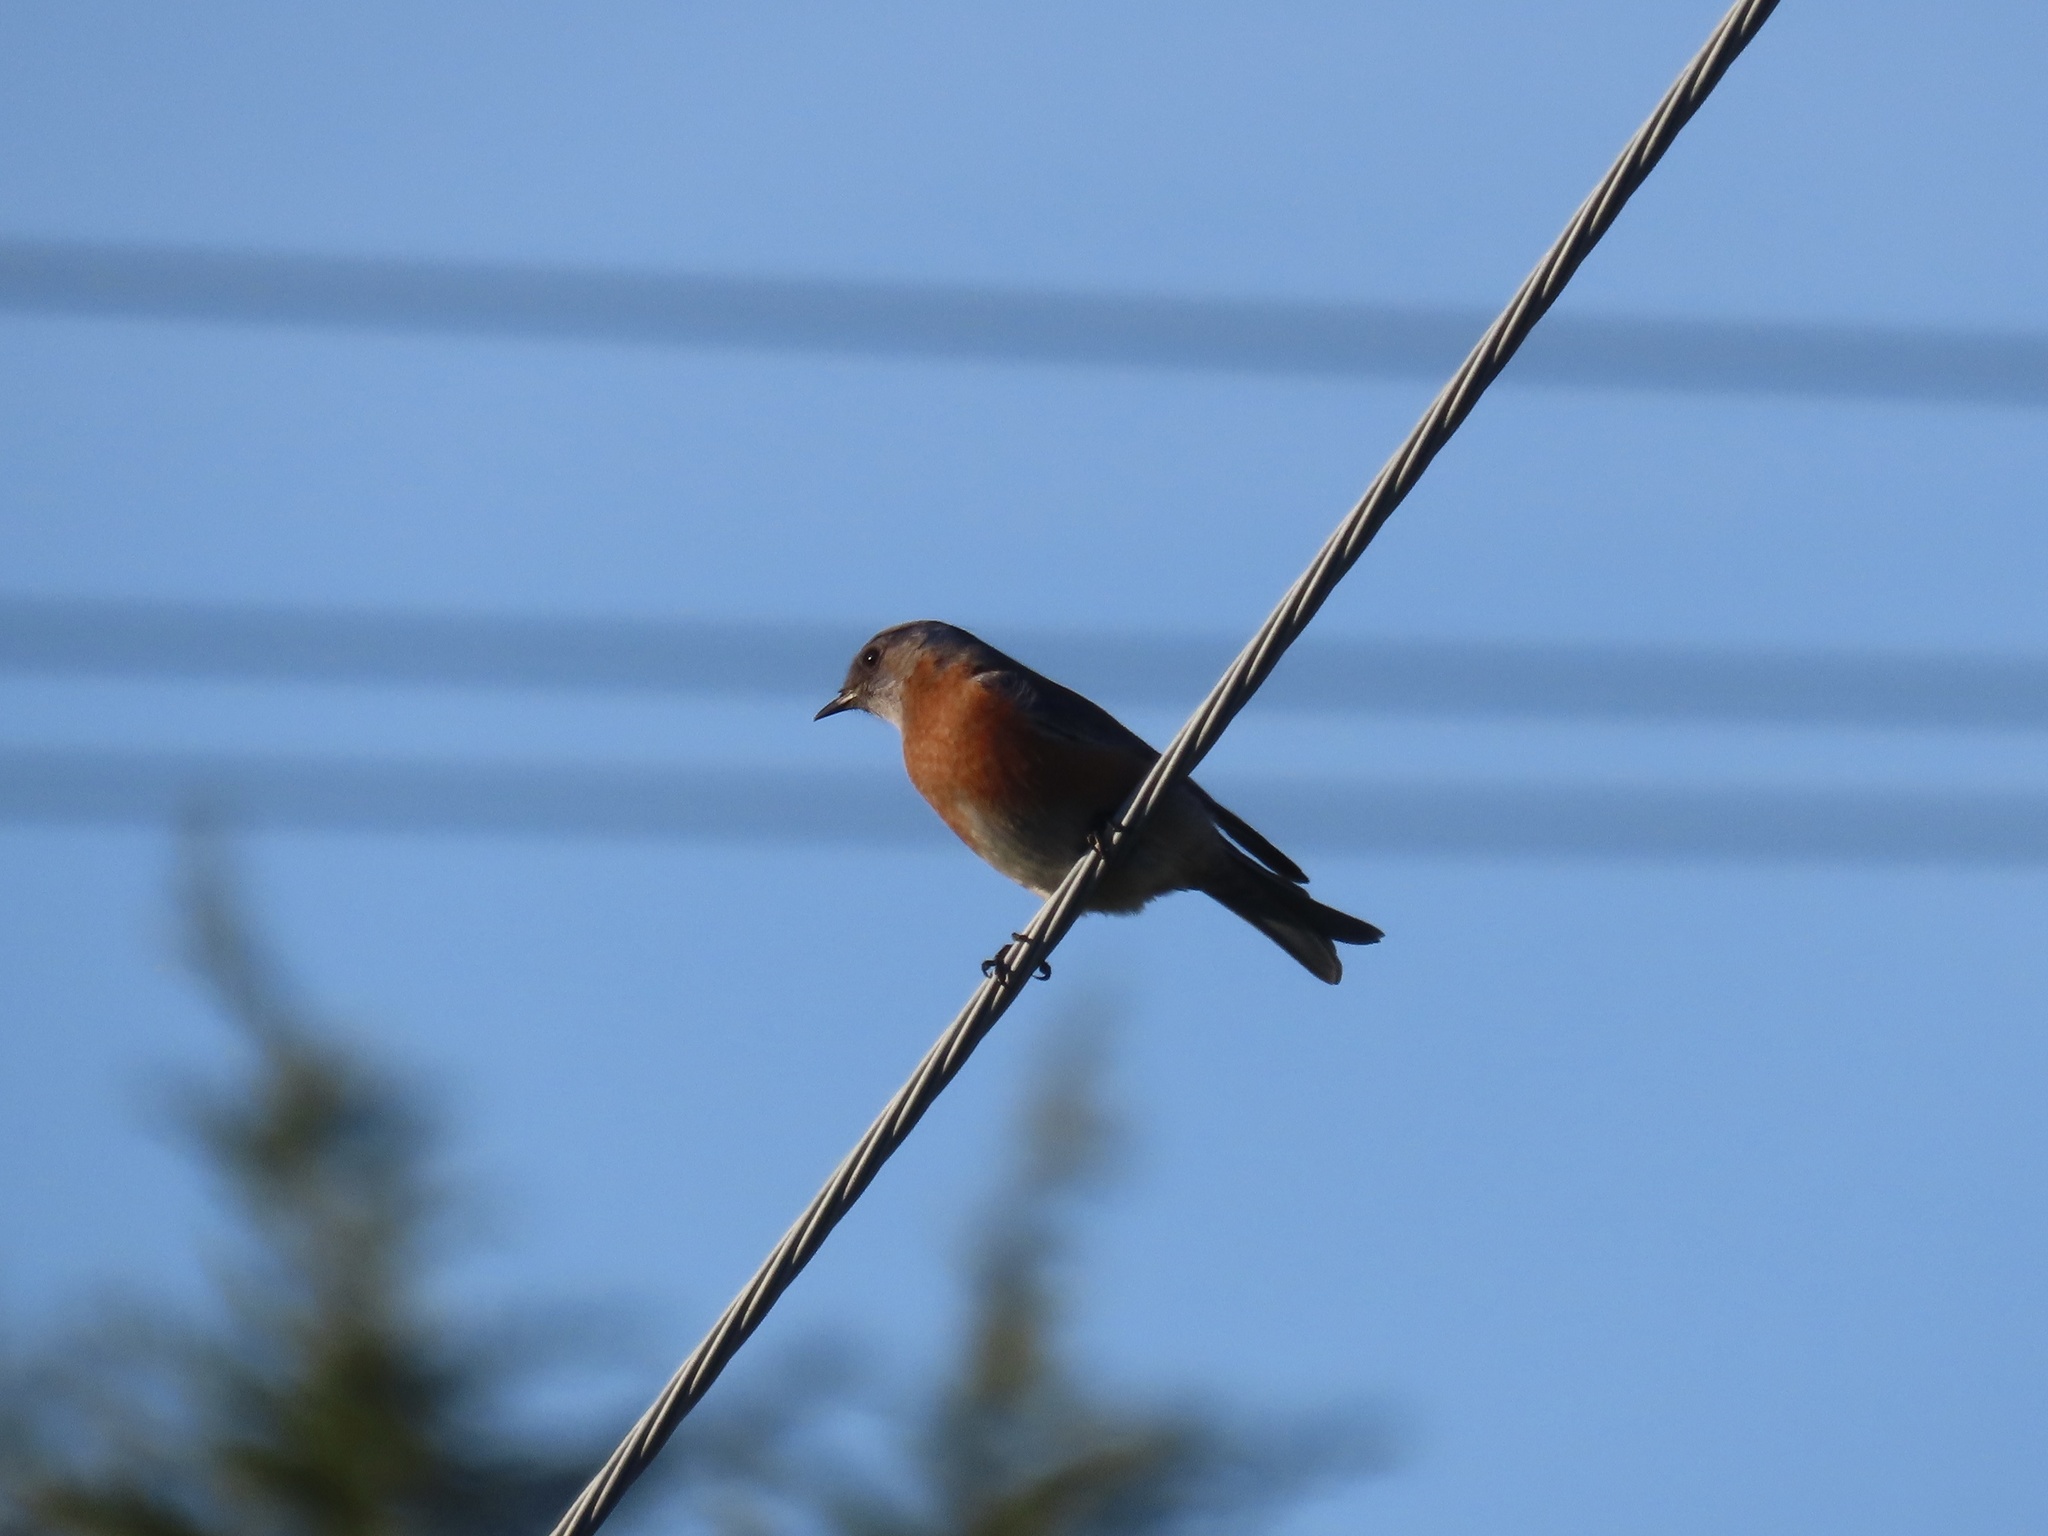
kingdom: Animalia
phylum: Chordata
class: Aves
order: Passeriformes
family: Turdidae
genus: Sialia
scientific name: Sialia mexicana
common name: Western bluebird
